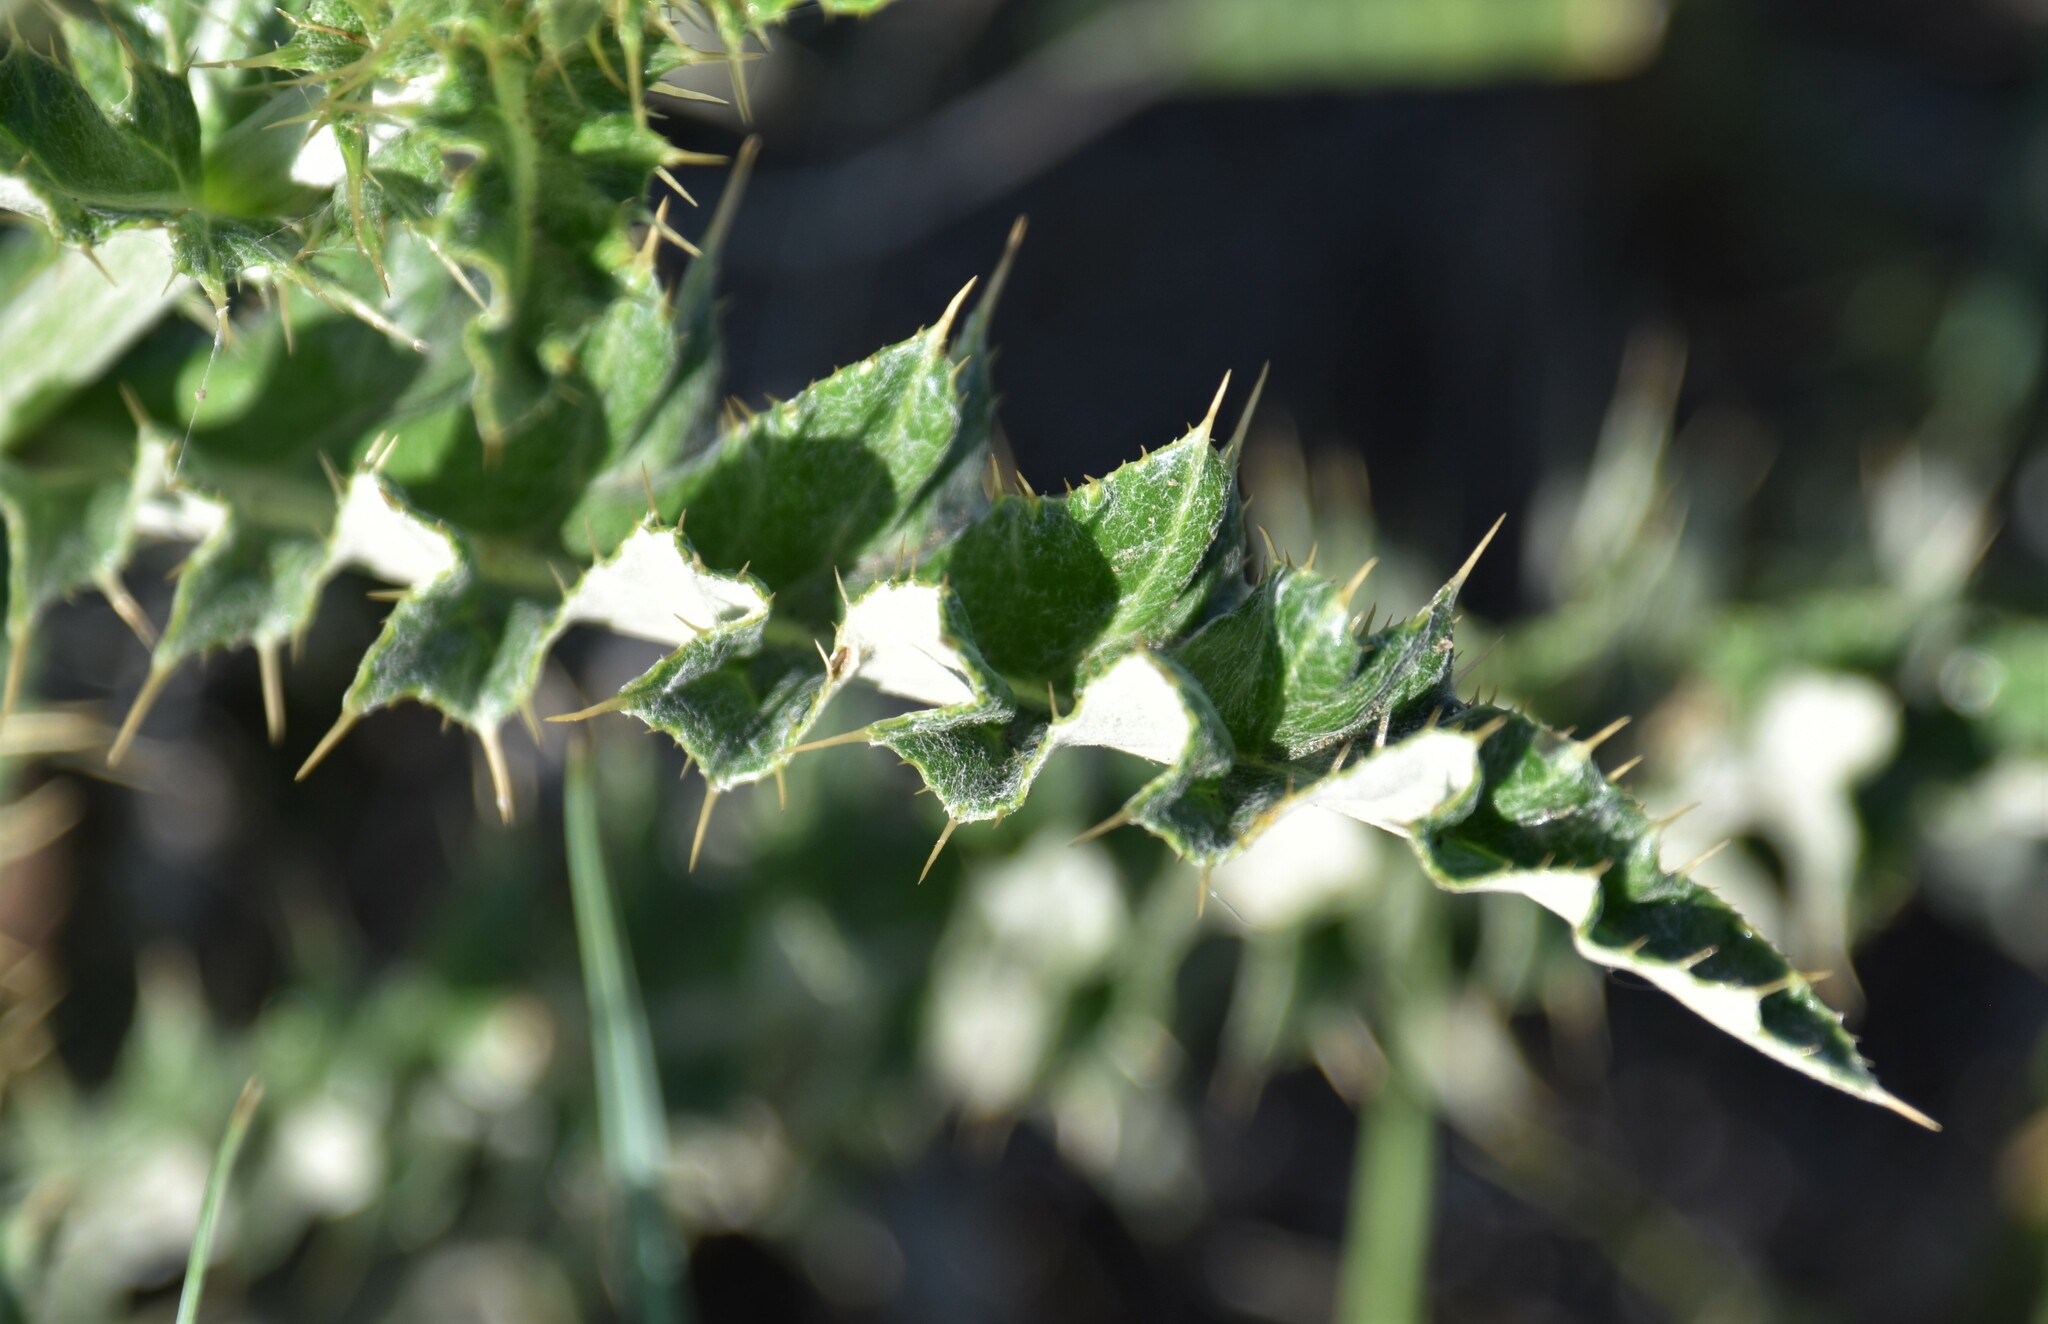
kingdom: Plantae
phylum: Tracheophyta
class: Magnoliopsida
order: Asterales
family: Asteraceae
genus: Cirsium
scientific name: Cirsium undulatum
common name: Pasture thistle
